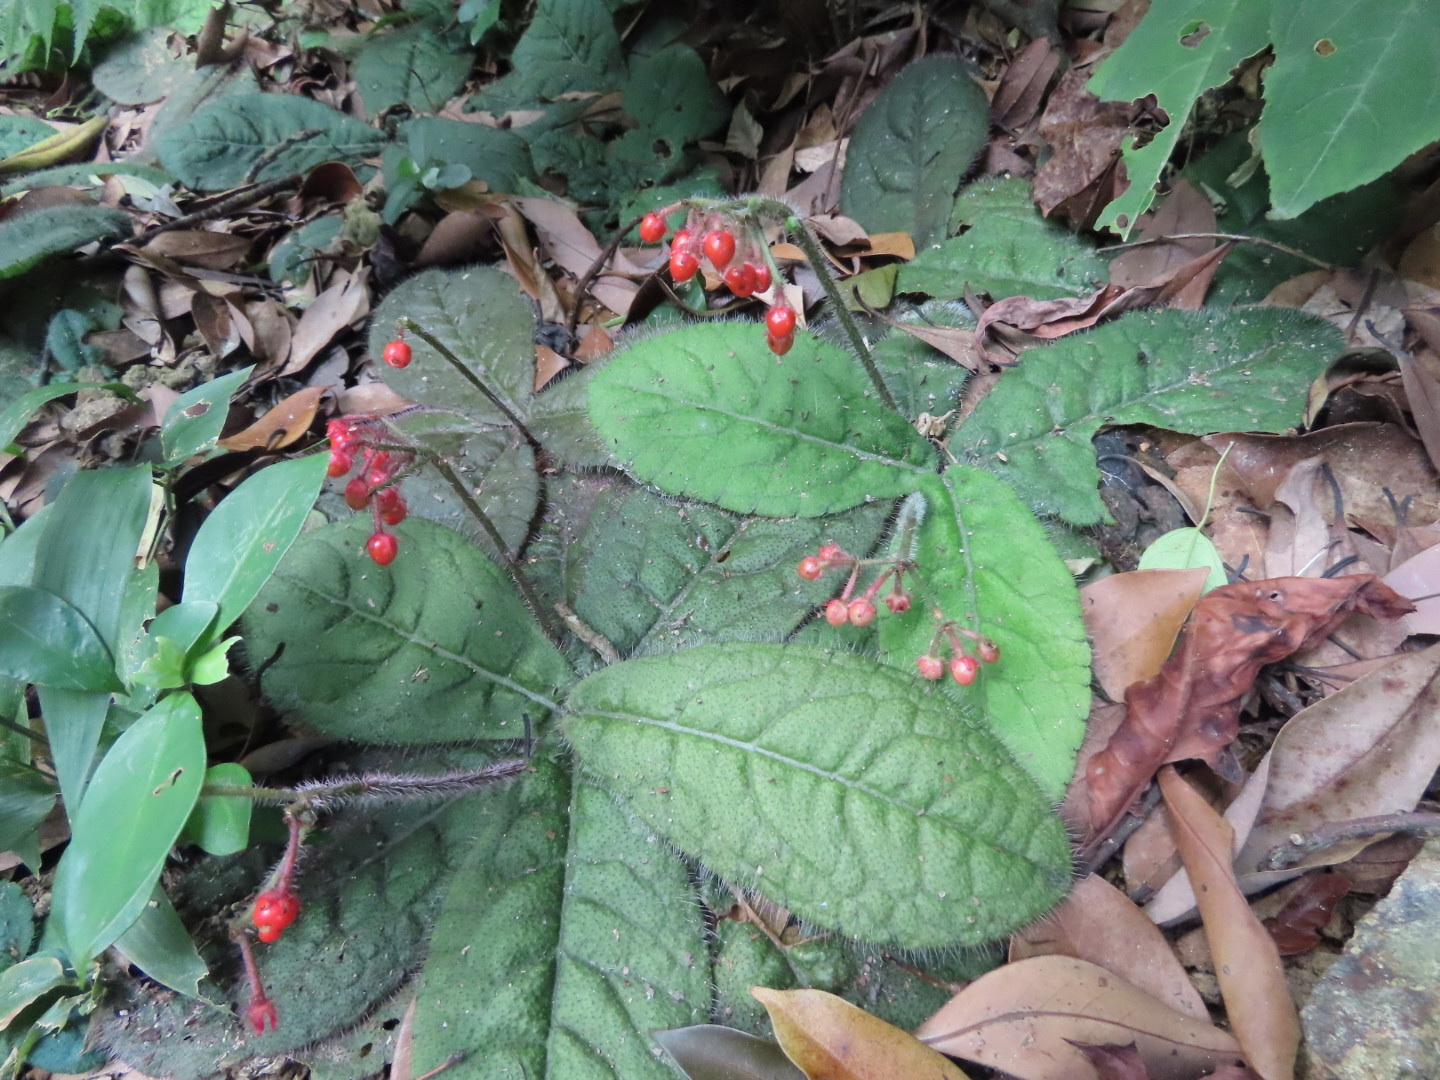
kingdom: Plantae
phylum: Tracheophyta
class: Magnoliopsida
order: Ericales
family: Primulaceae
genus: Ardisia
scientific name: Ardisia primulifolia
